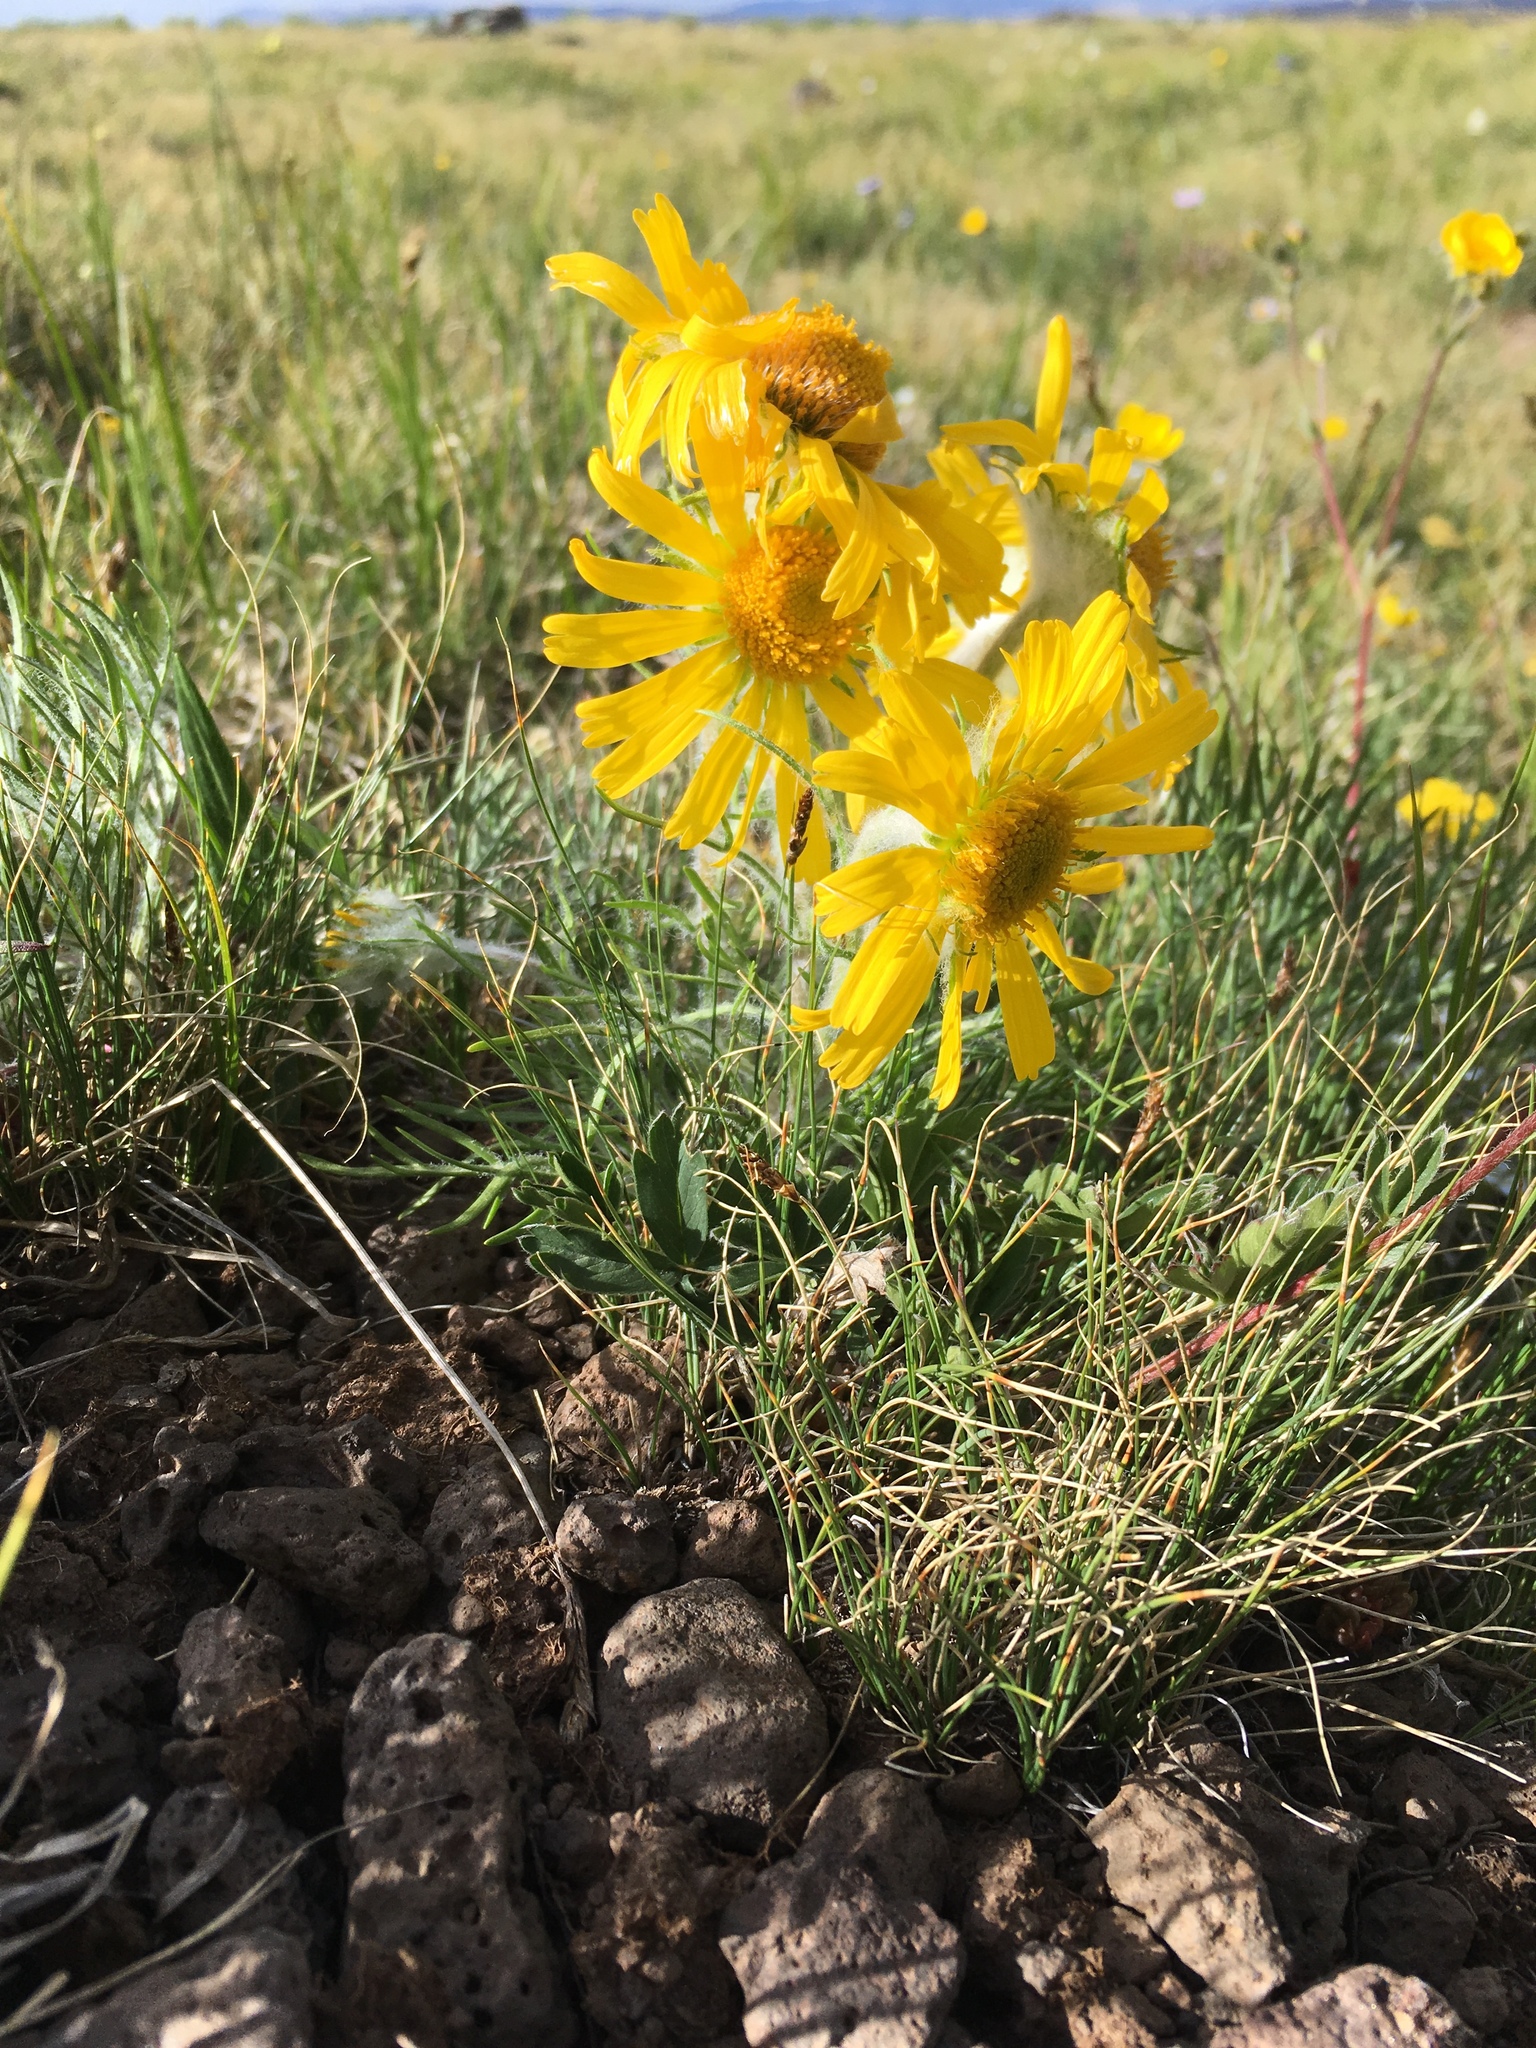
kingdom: Plantae
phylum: Tracheophyta
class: Magnoliopsida
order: Asterales
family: Asteraceae
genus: Hymenoxys
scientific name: Hymenoxys grandiflora
